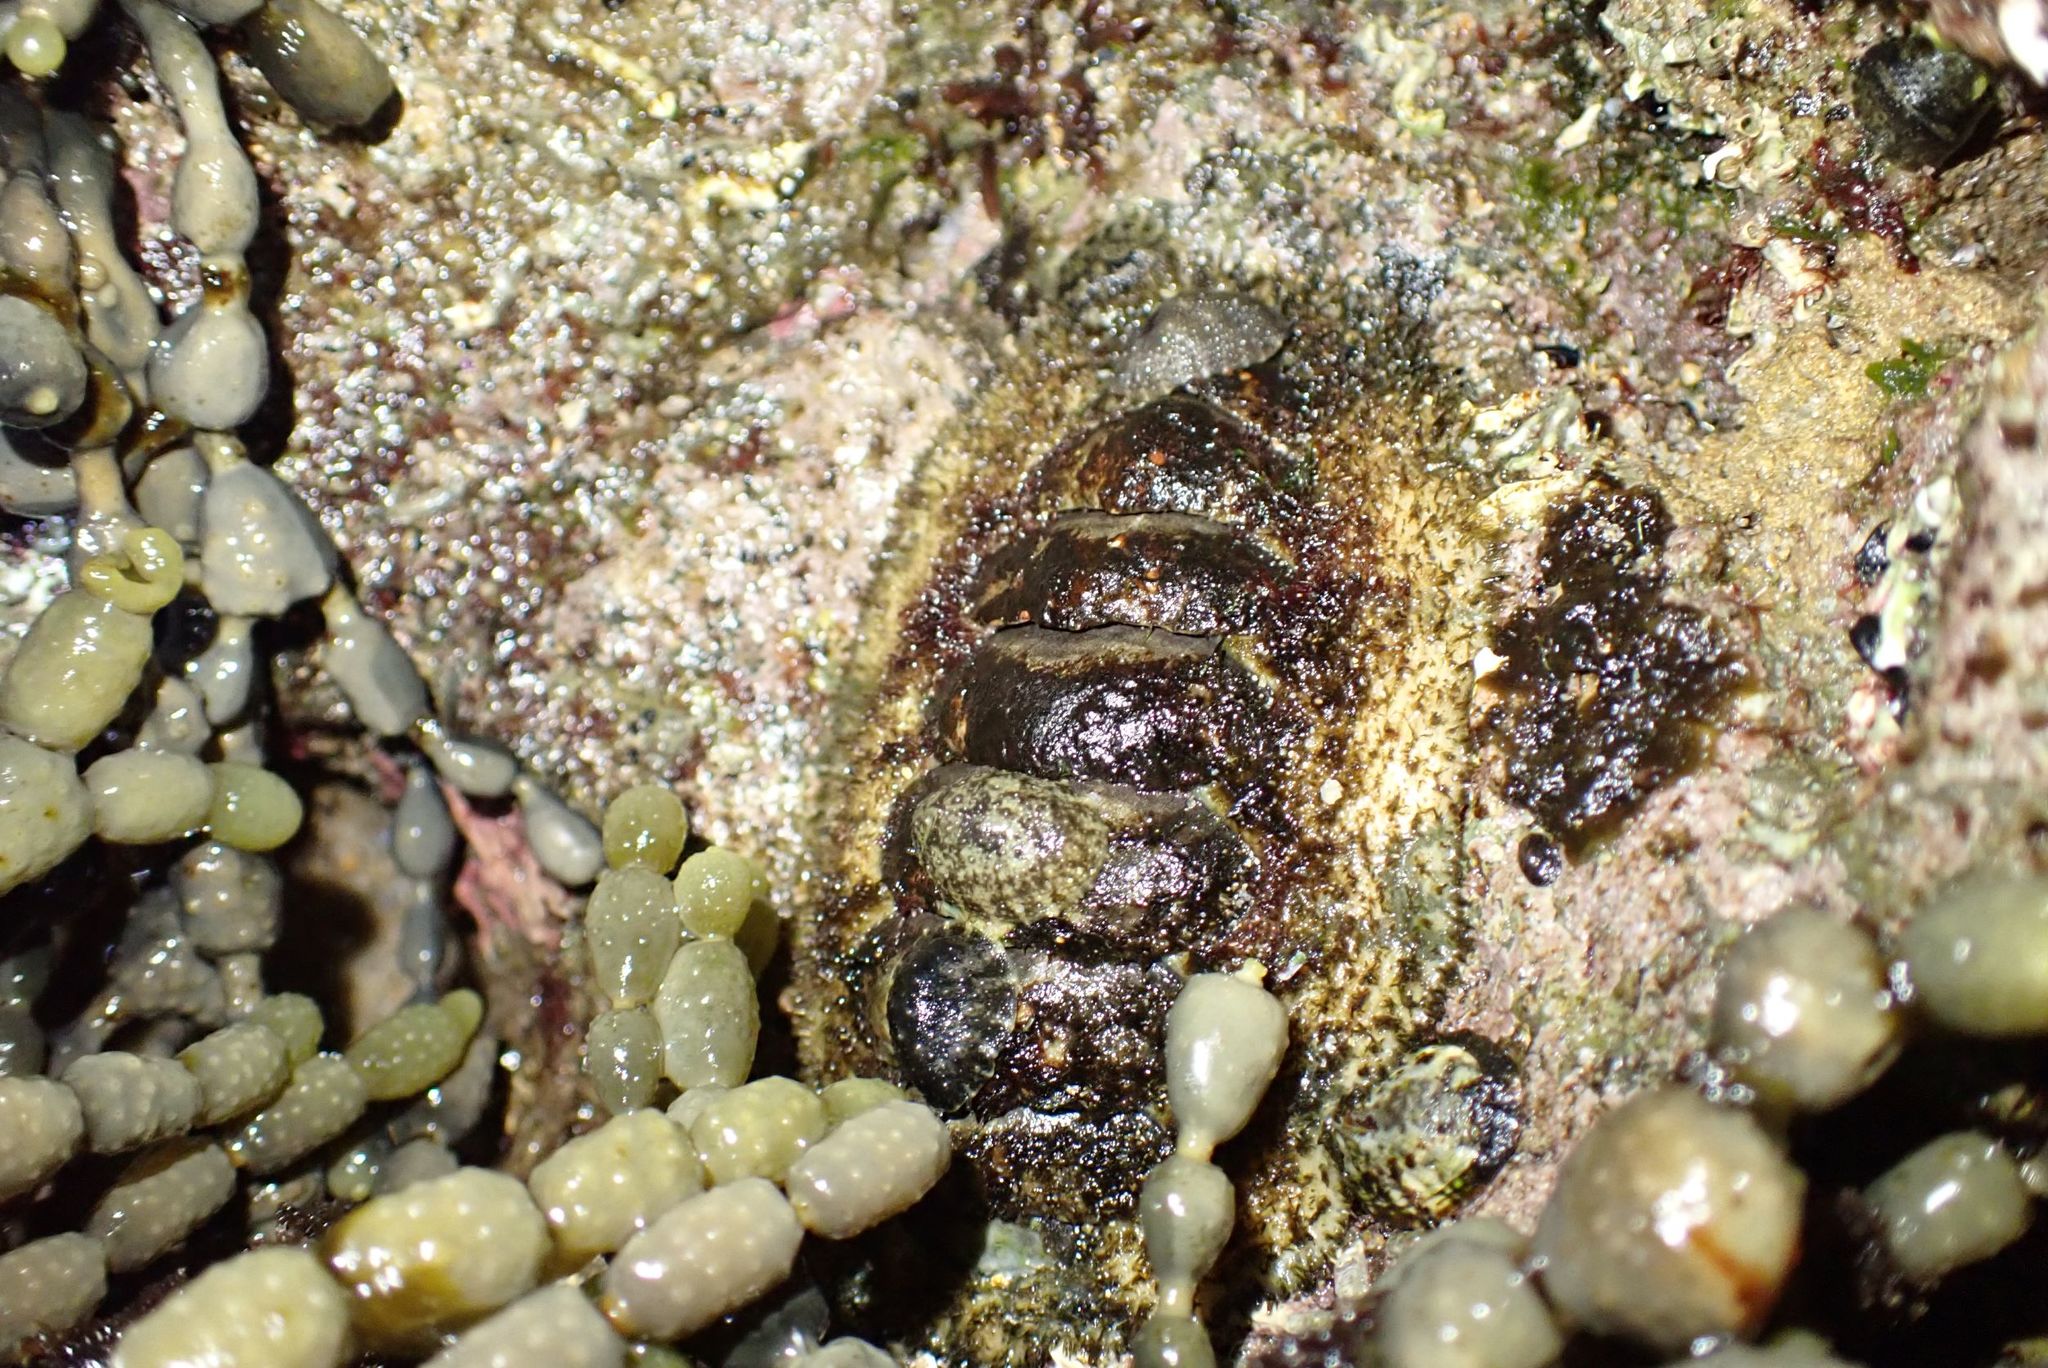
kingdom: Animalia
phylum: Mollusca
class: Polyplacophora
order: Chitonida
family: Mopaliidae
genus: Plaxiphora
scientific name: Plaxiphora albida
